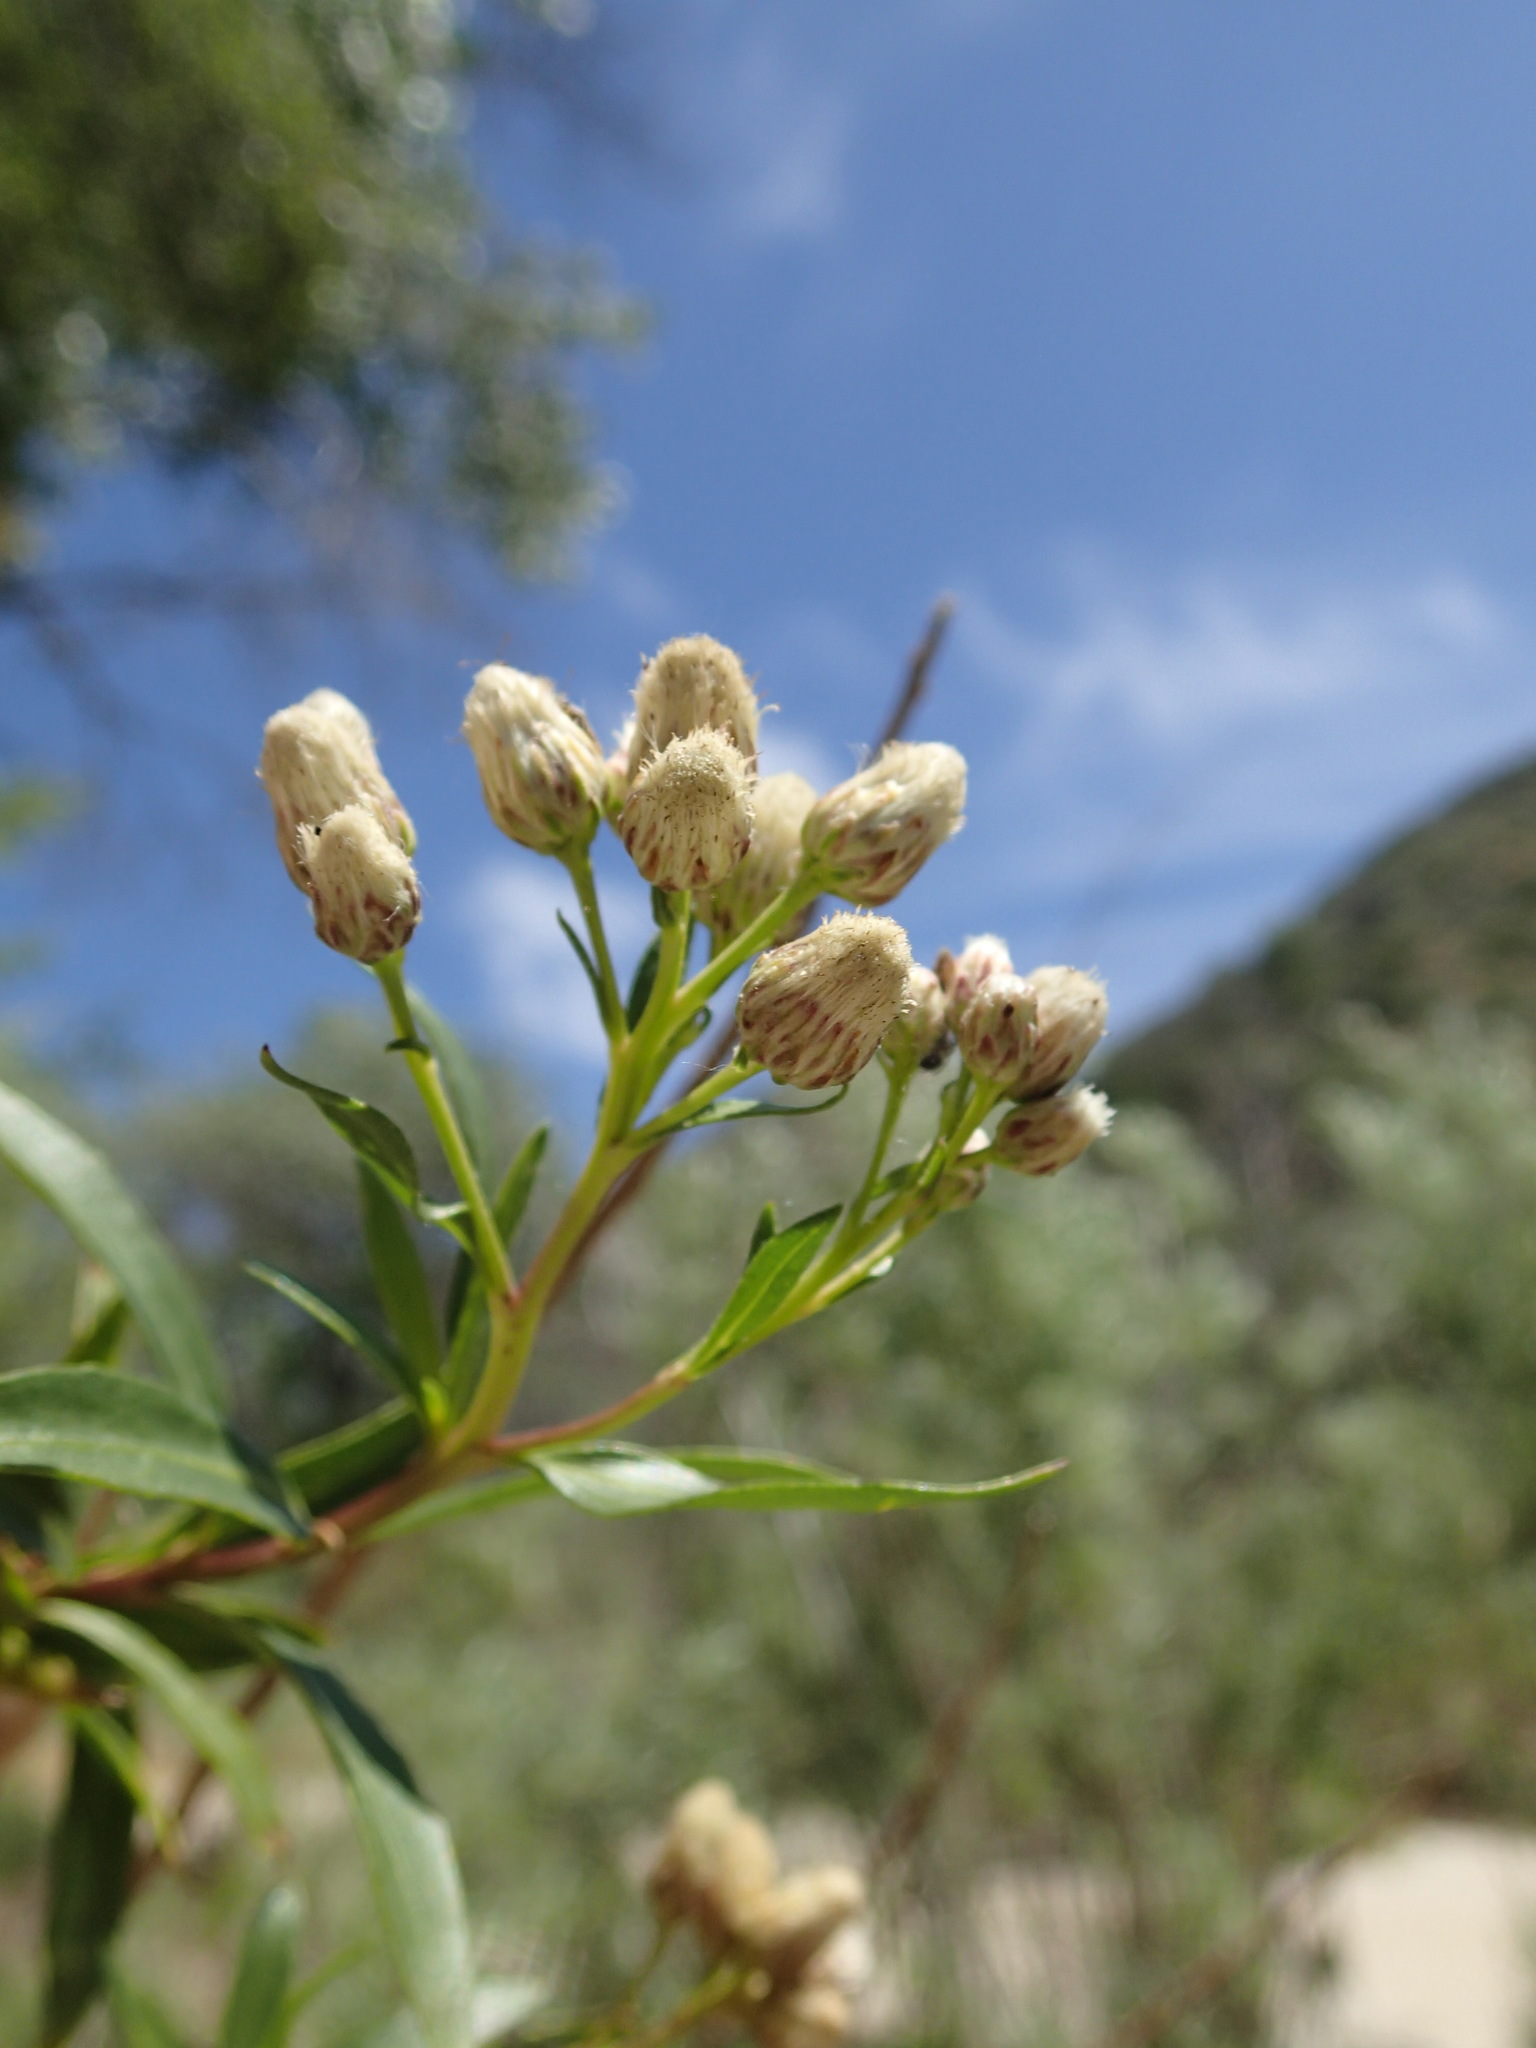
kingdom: Plantae
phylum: Tracheophyta
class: Magnoliopsida
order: Asterales
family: Asteraceae
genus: Baccharis
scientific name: Baccharis salicifolia
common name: Sticky baccharis
